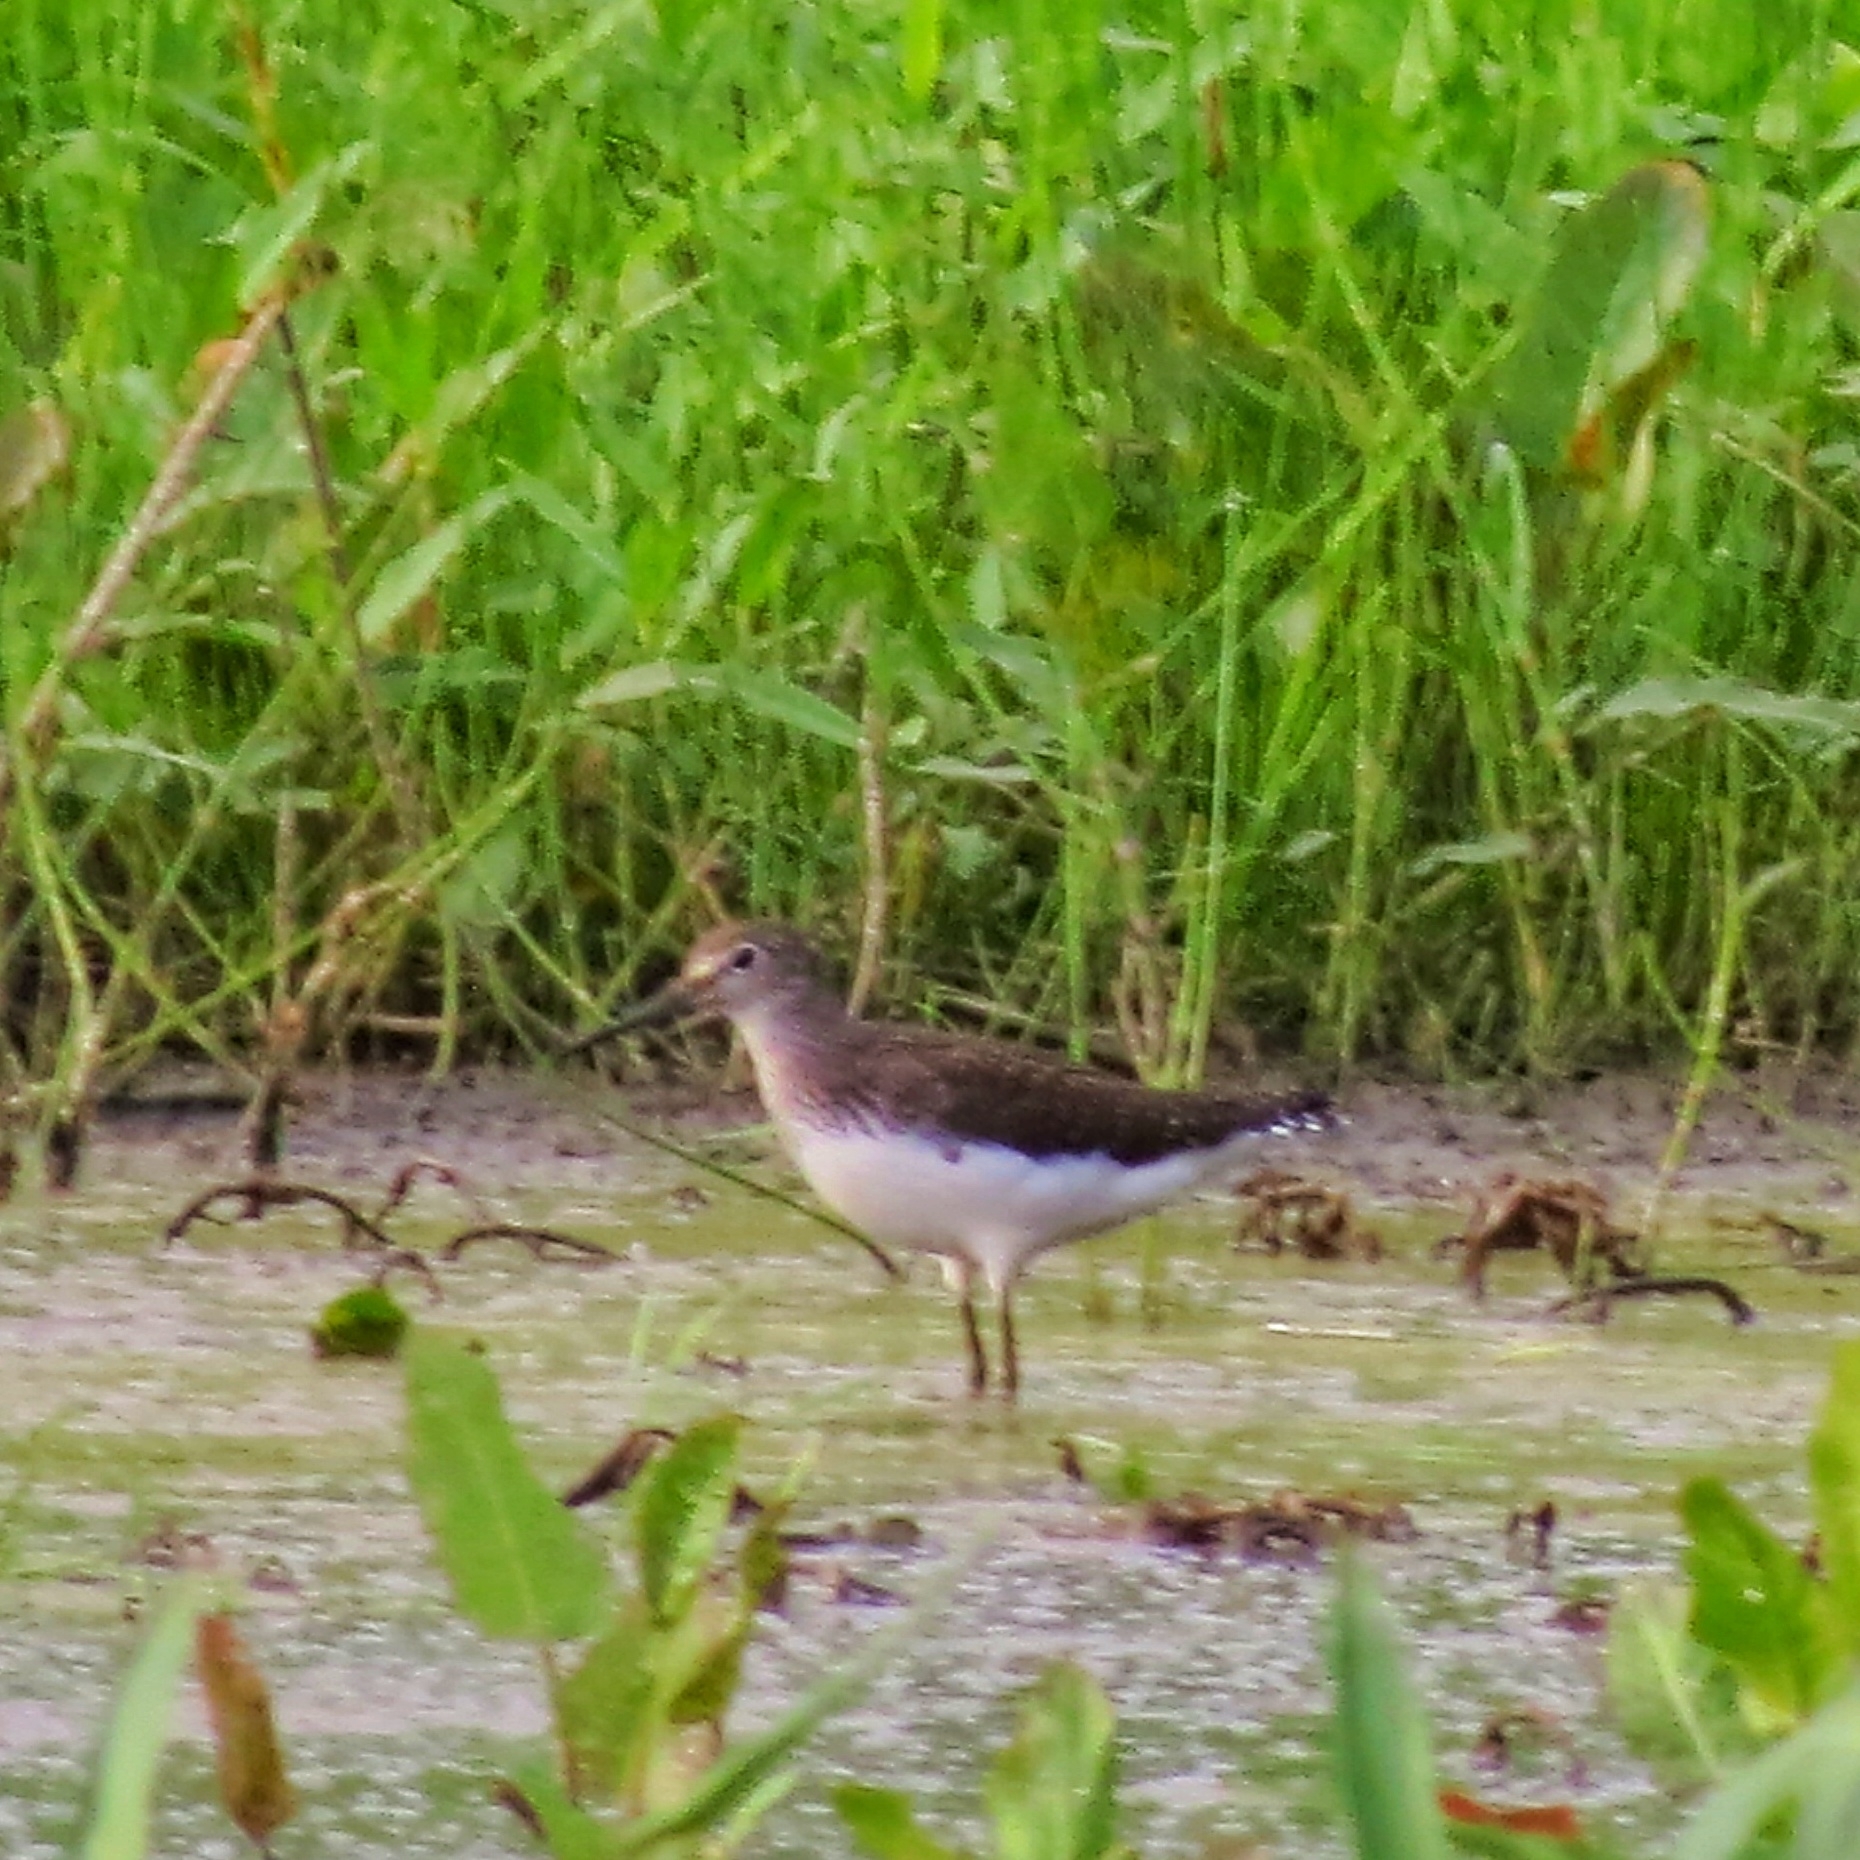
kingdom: Animalia
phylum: Chordata
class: Aves
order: Charadriiformes
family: Scolopacidae
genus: Tringa
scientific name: Tringa ochropus
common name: Green sandpiper
